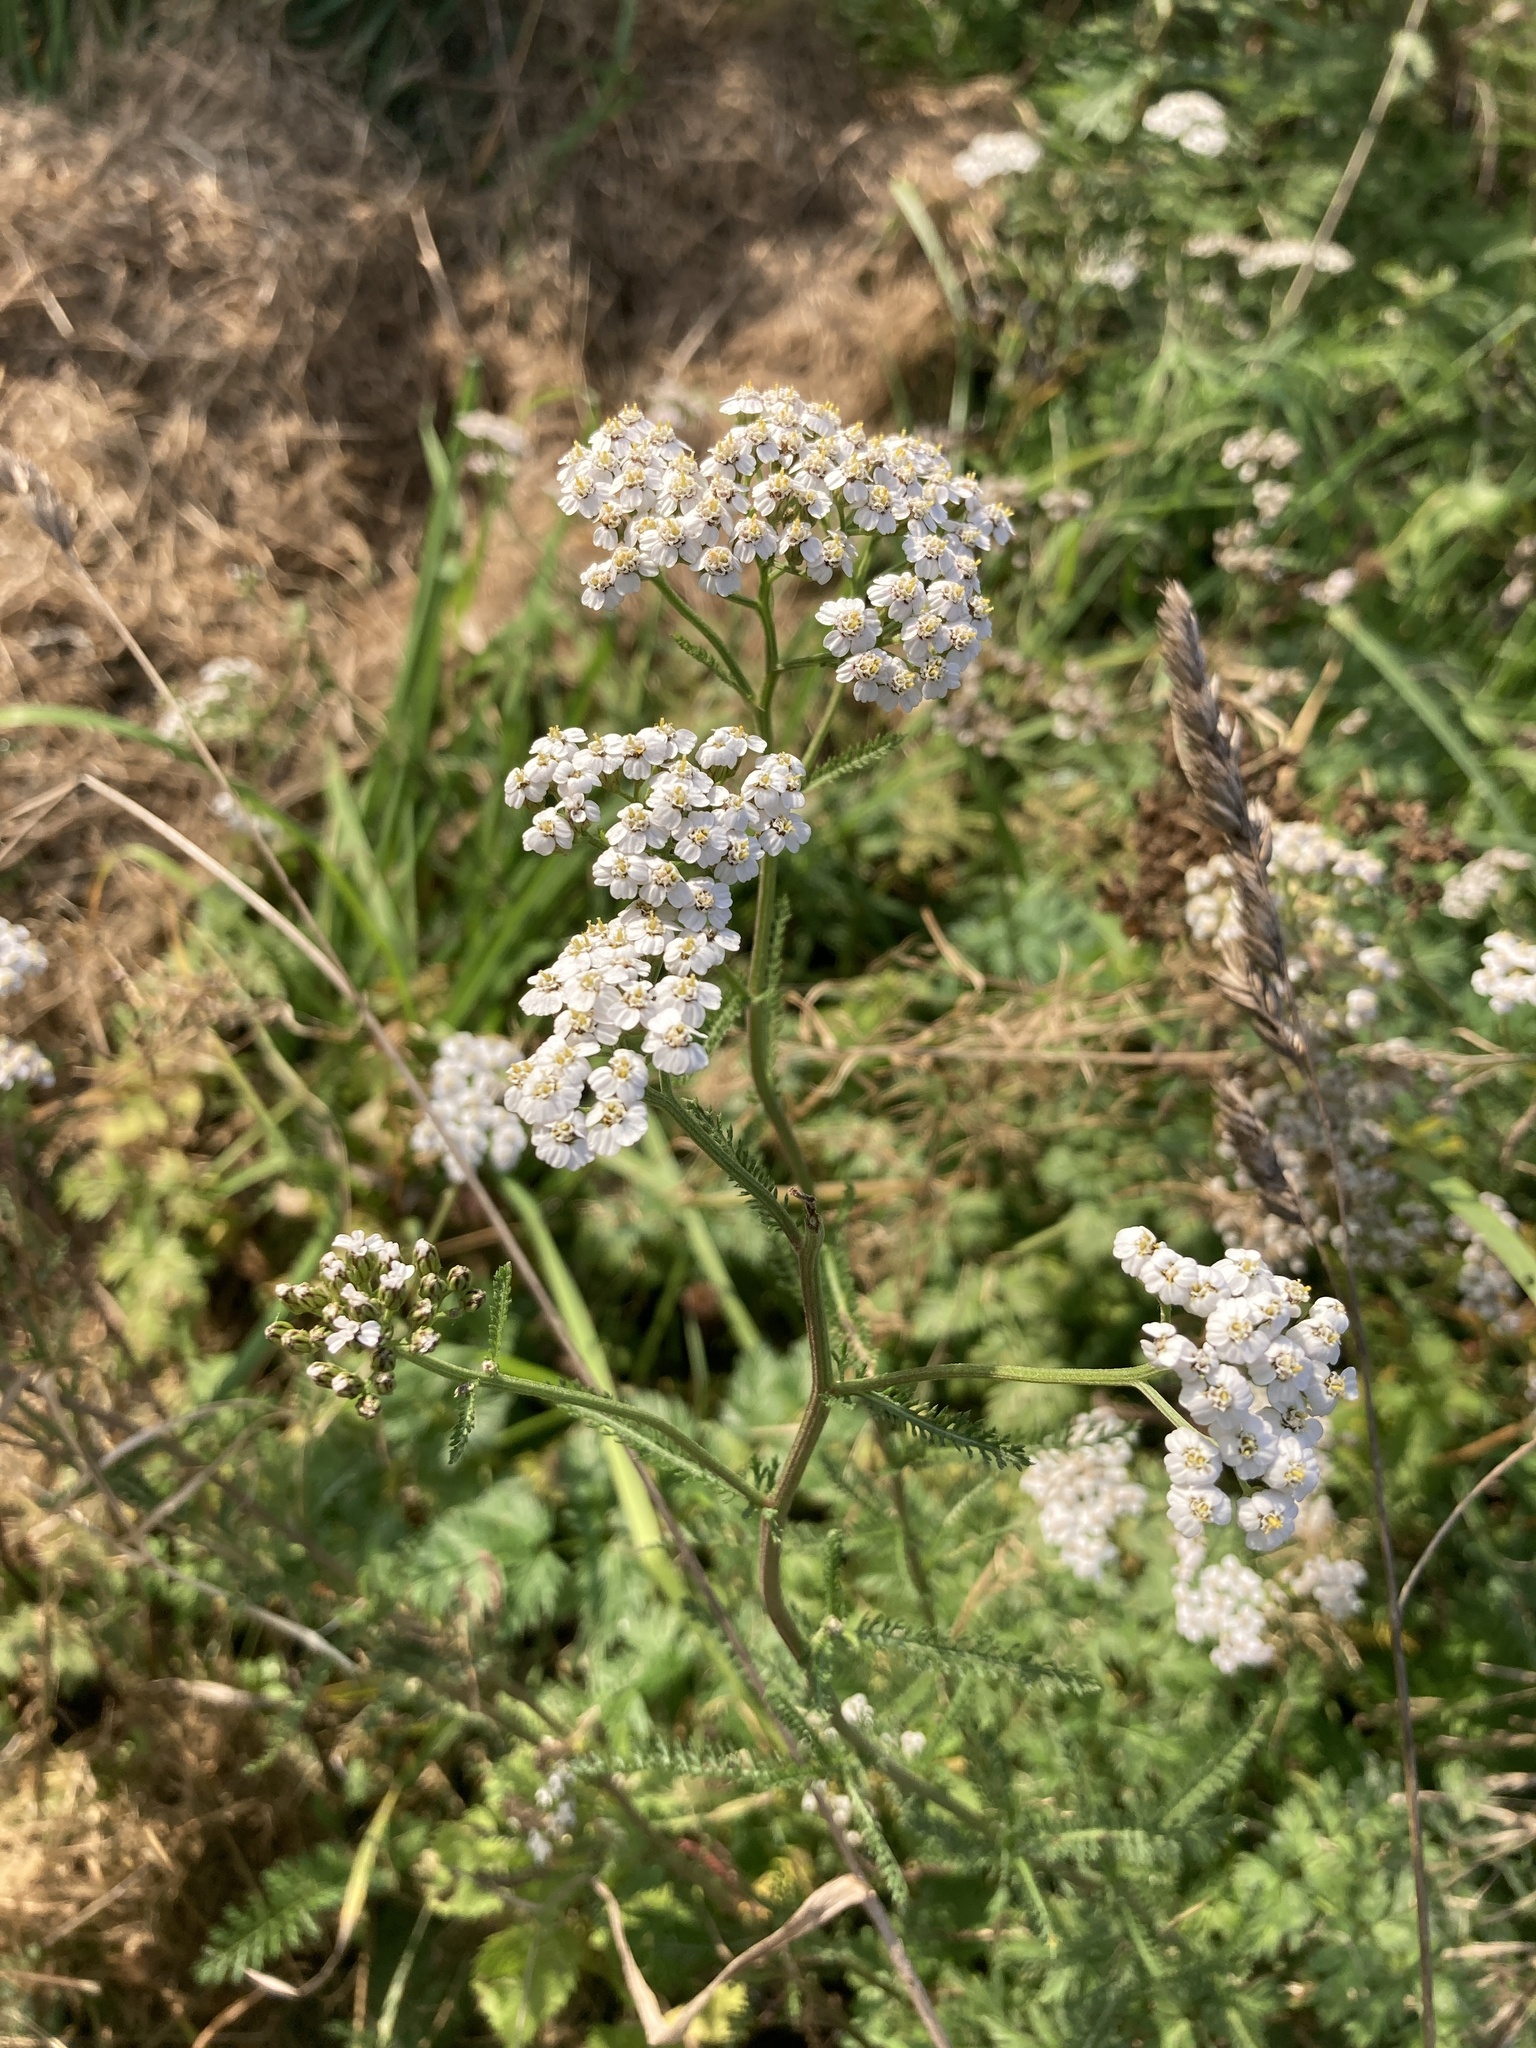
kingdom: Plantae
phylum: Tracheophyta
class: Magnoliopsida
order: Asterales
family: Asteraceae
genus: Achillea
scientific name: Achillea millefolium
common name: Yarrow
